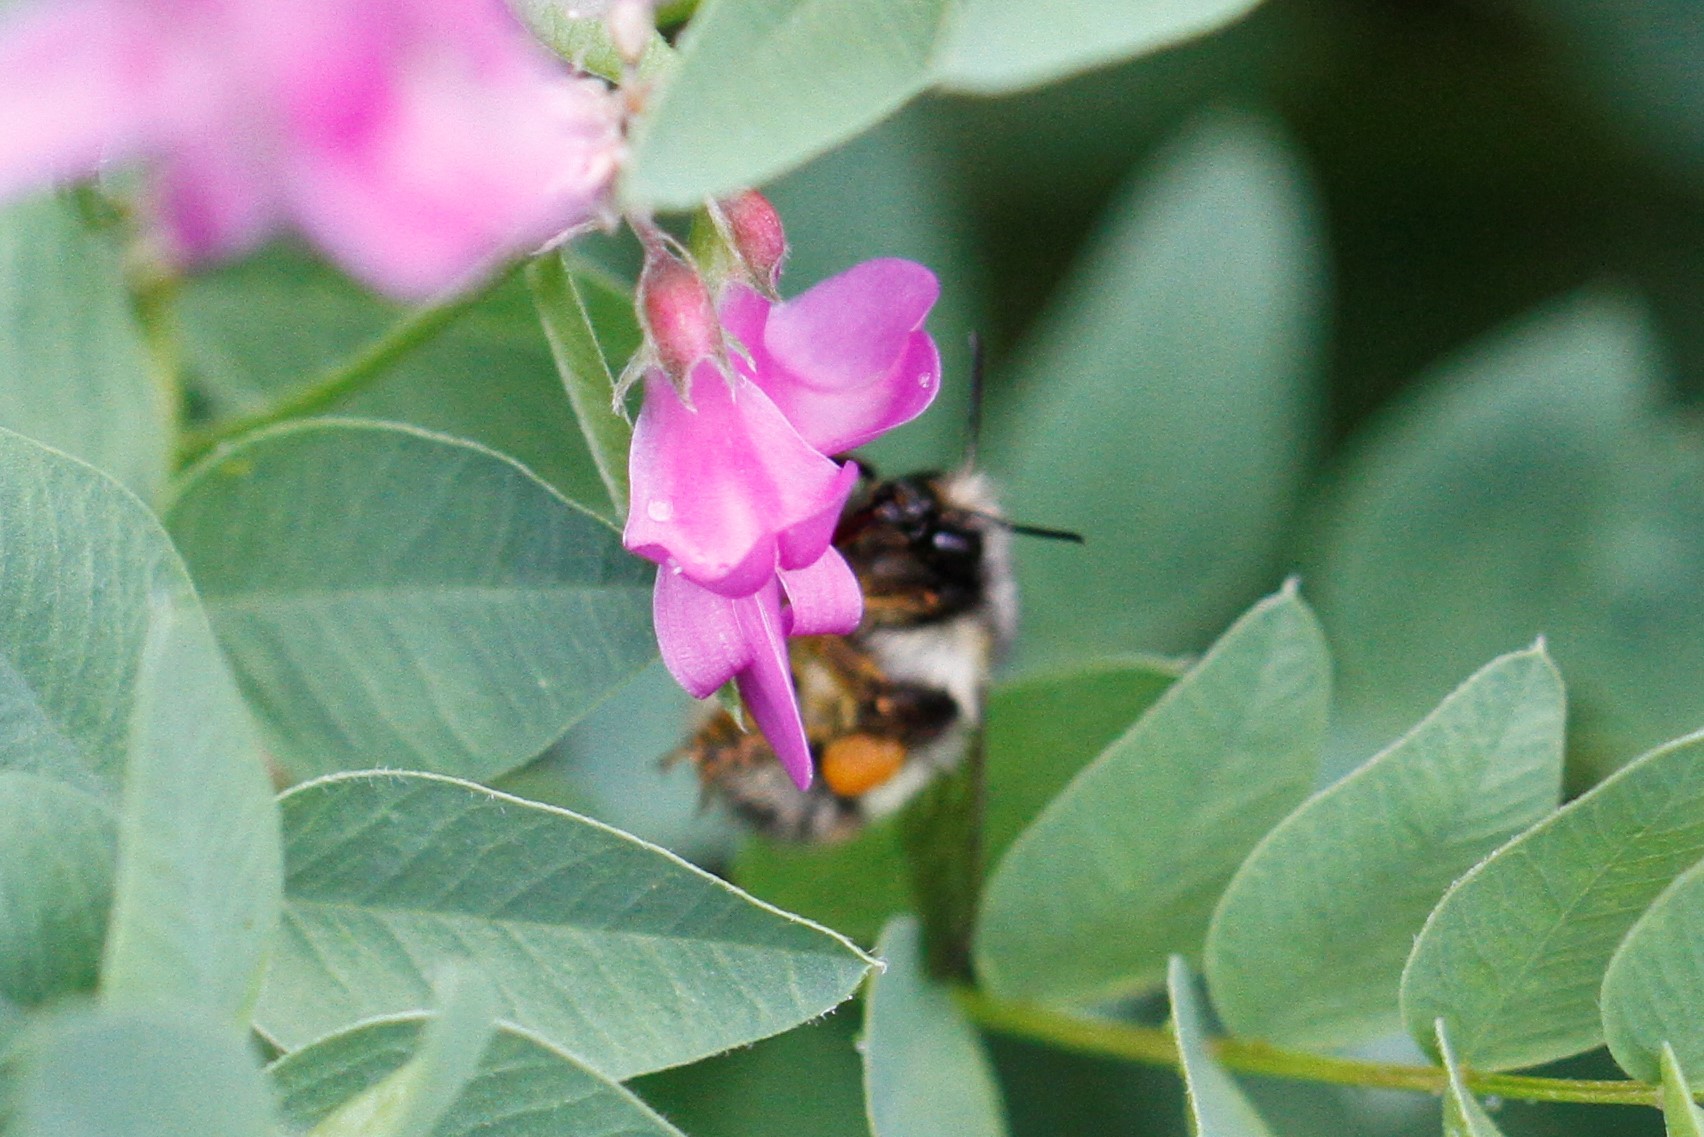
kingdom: Animalia
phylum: Arthropoda
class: Insecta
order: Hymenoptera
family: Apidae
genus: Bombus
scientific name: Bombus flavifrons
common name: Yellow head bumble bee
